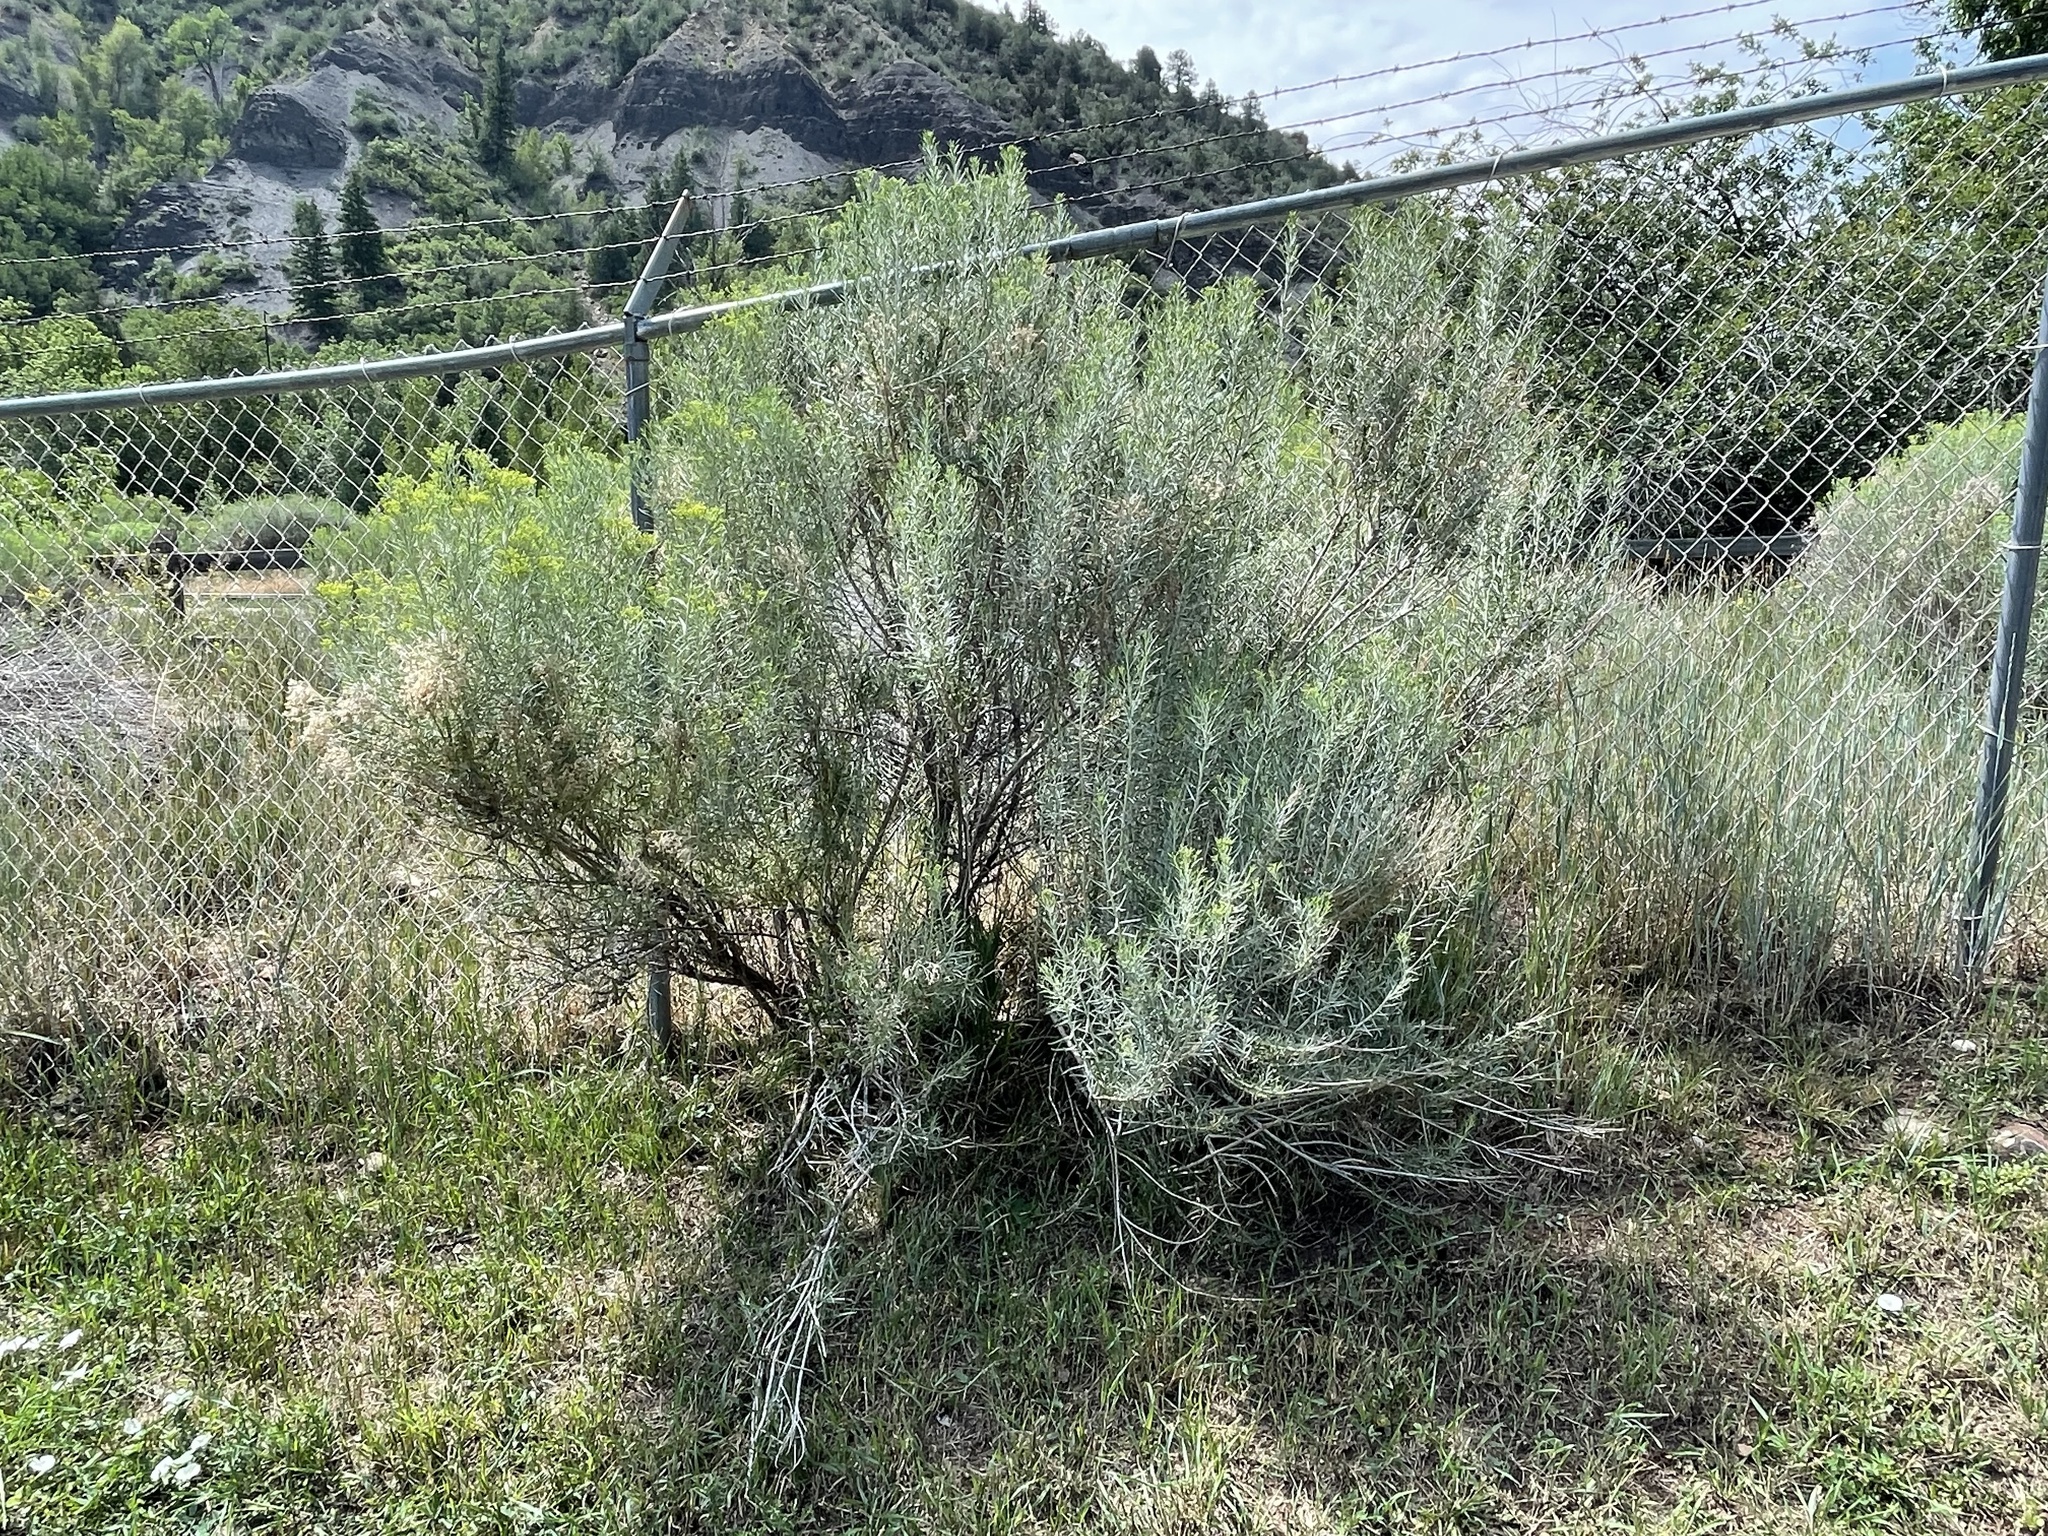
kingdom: Plantae
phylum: Tracheophyta
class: Magnoliopsida
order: Asterales
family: Asteraceae
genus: Ericameria
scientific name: Ericameria nauseosa
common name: Rubber rabbitbrush
